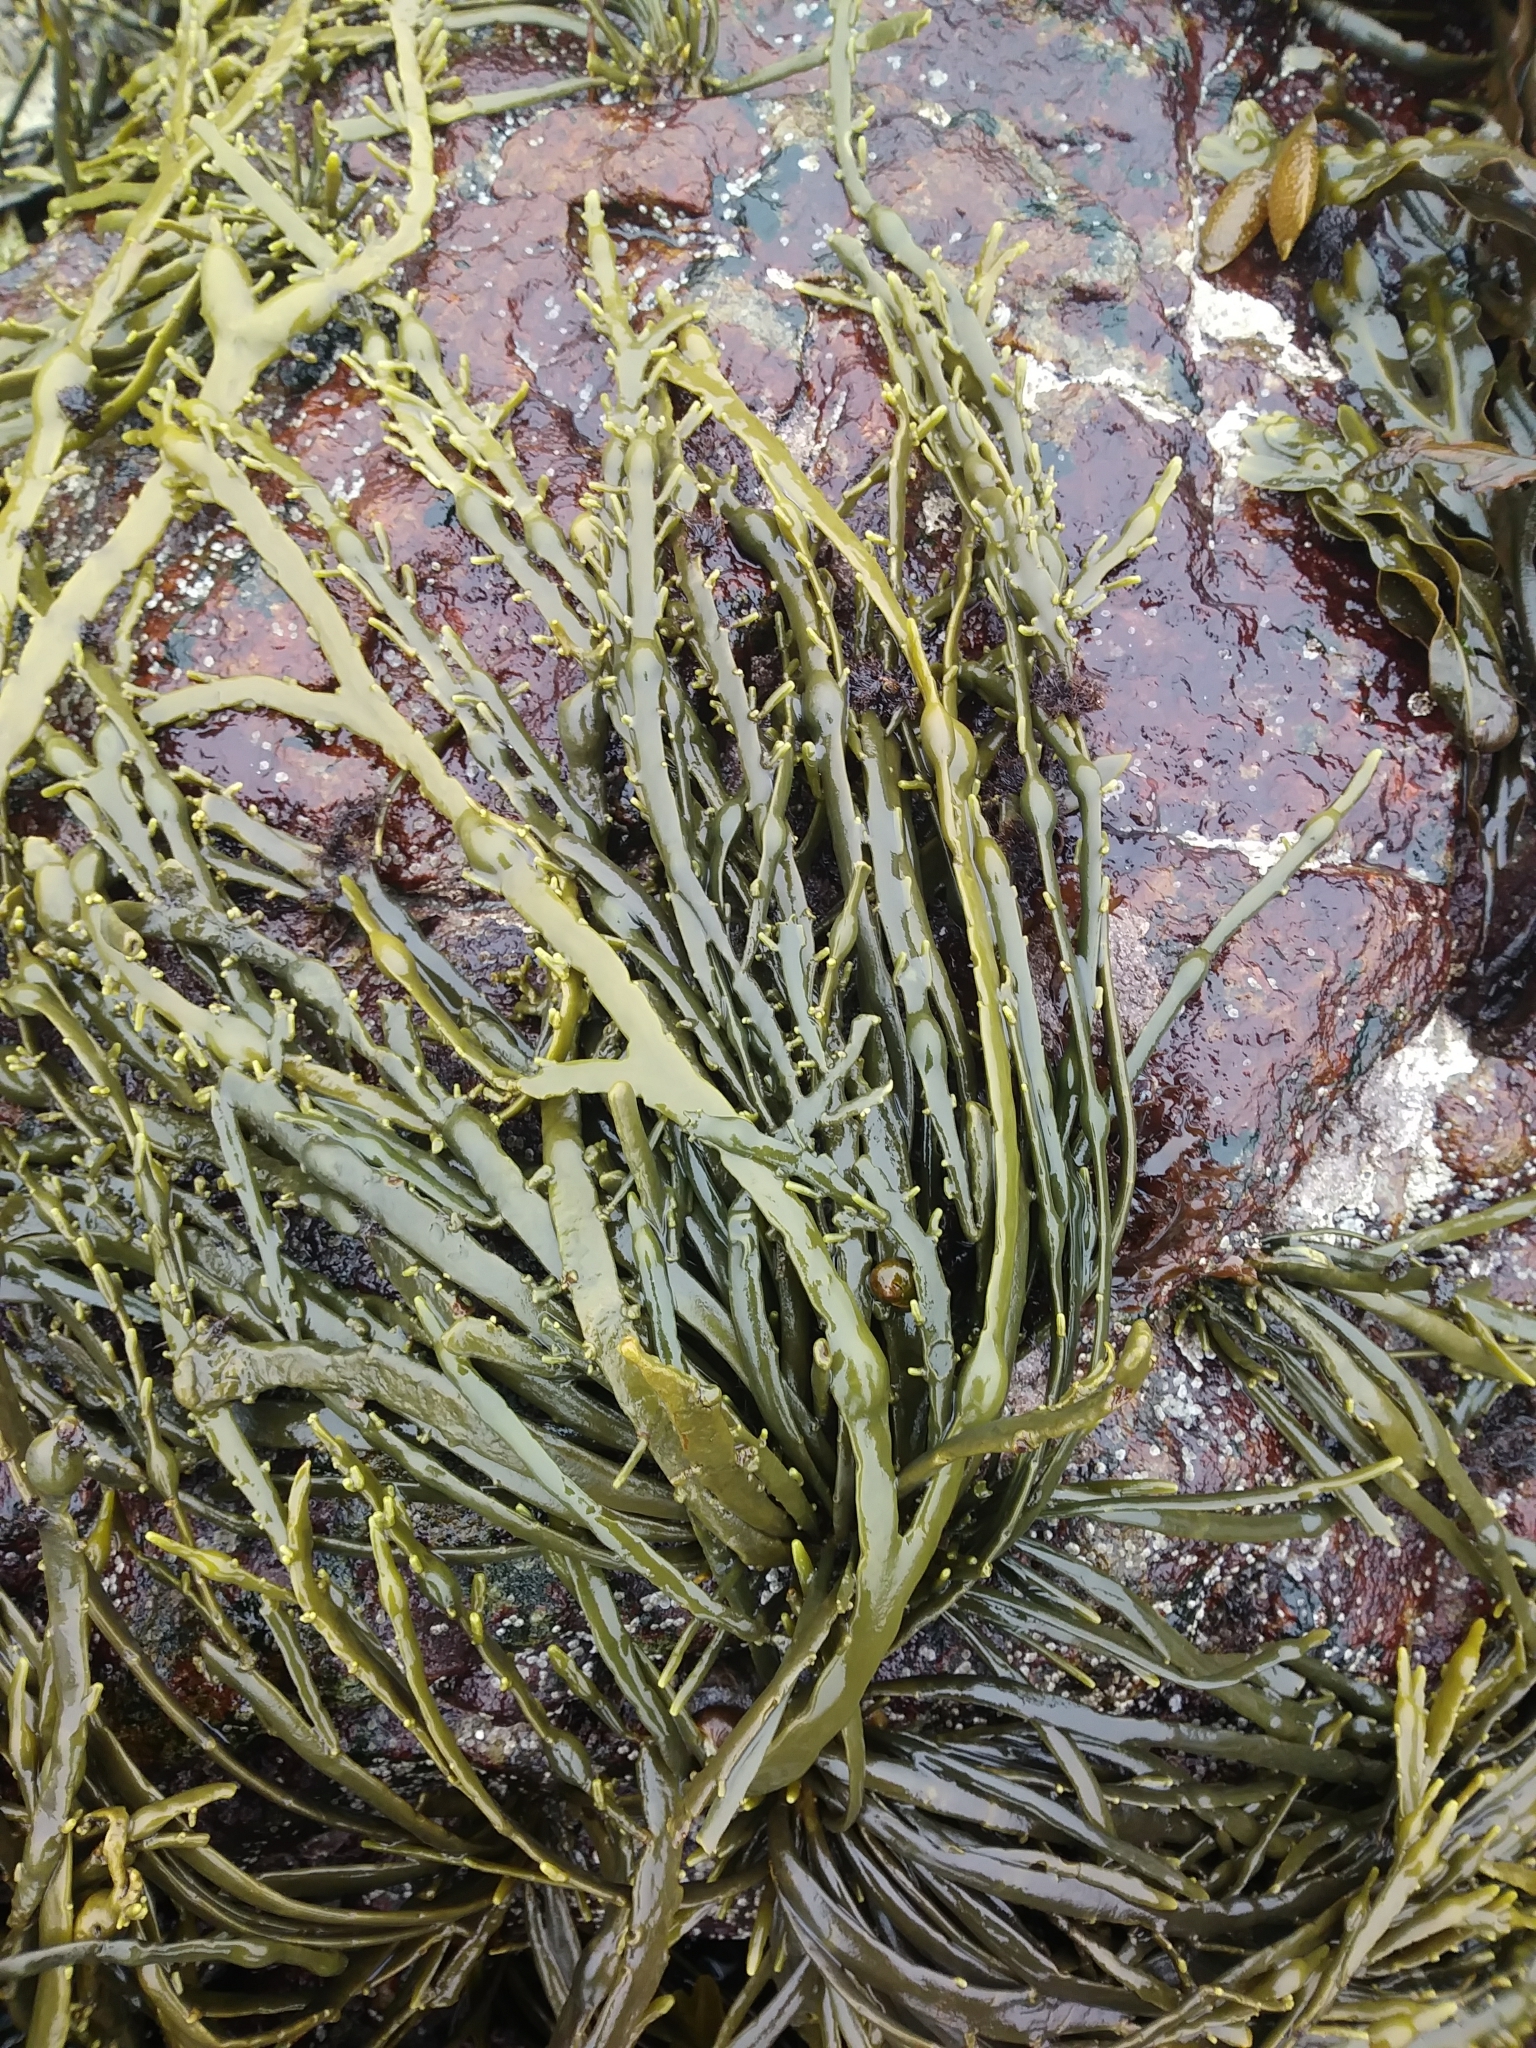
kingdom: Chromista
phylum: Ochrophyta
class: Phaeophyceae
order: Fucales
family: Fucaceae
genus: Ascophyllum
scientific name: Ascophyllum nodosum
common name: Knotted wrack
